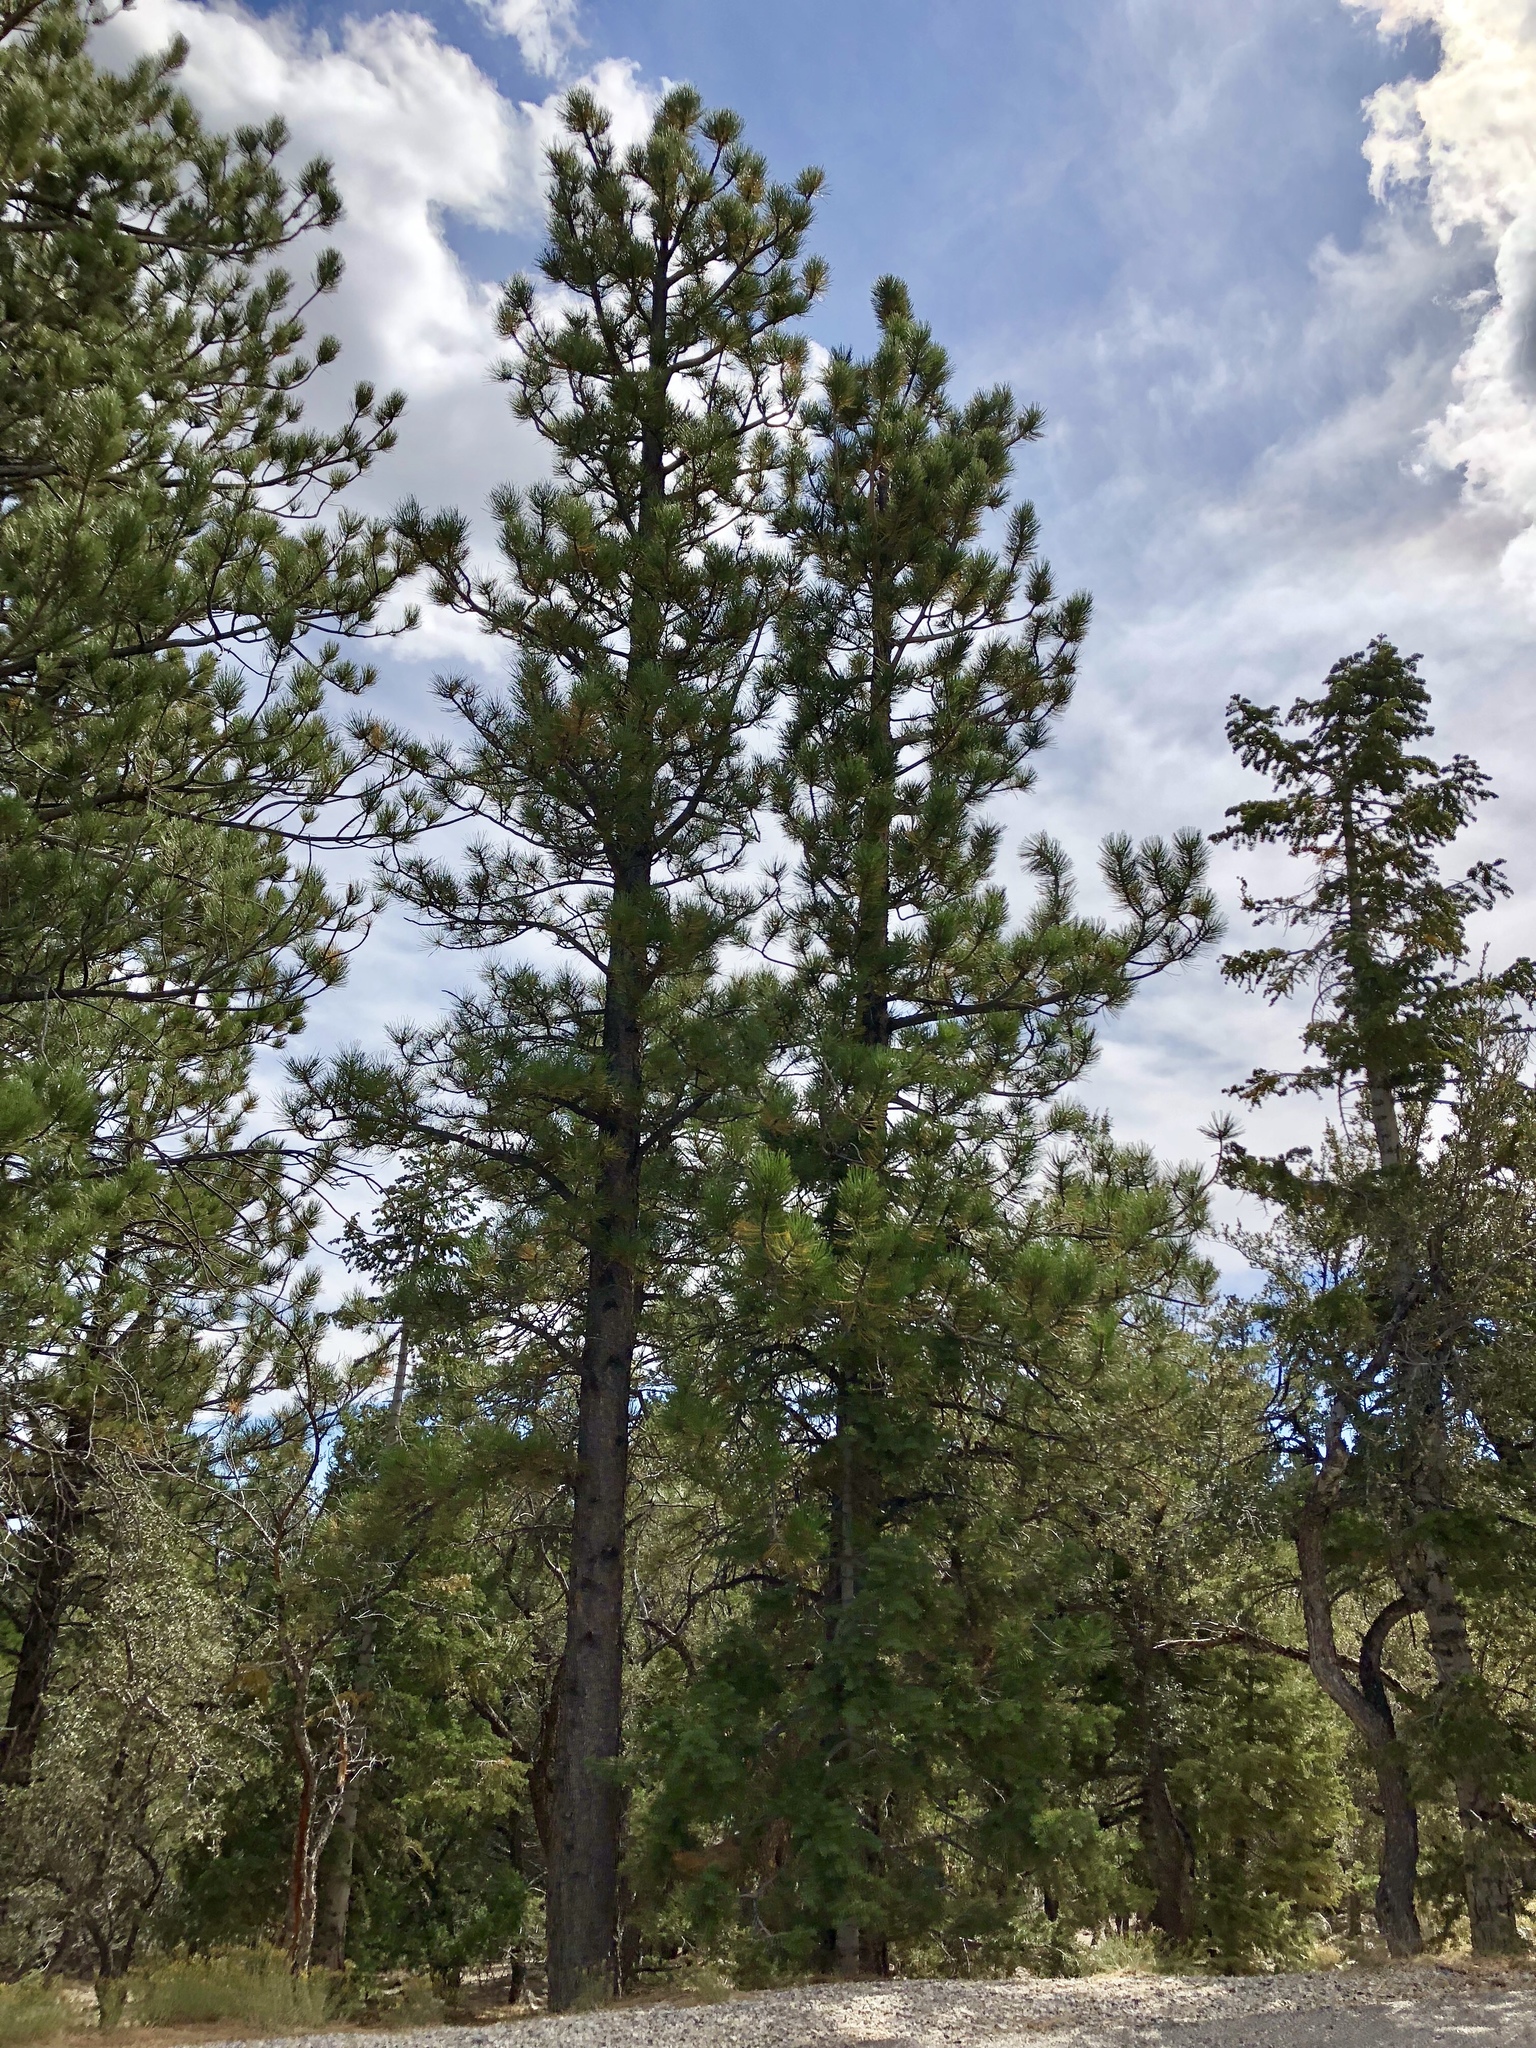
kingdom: Plantae
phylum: Tracheophyta
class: Pinopsida
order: Pinales
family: Pinaceae
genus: Pinus
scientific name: Pinus ponderosa
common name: Western yellow-pine
